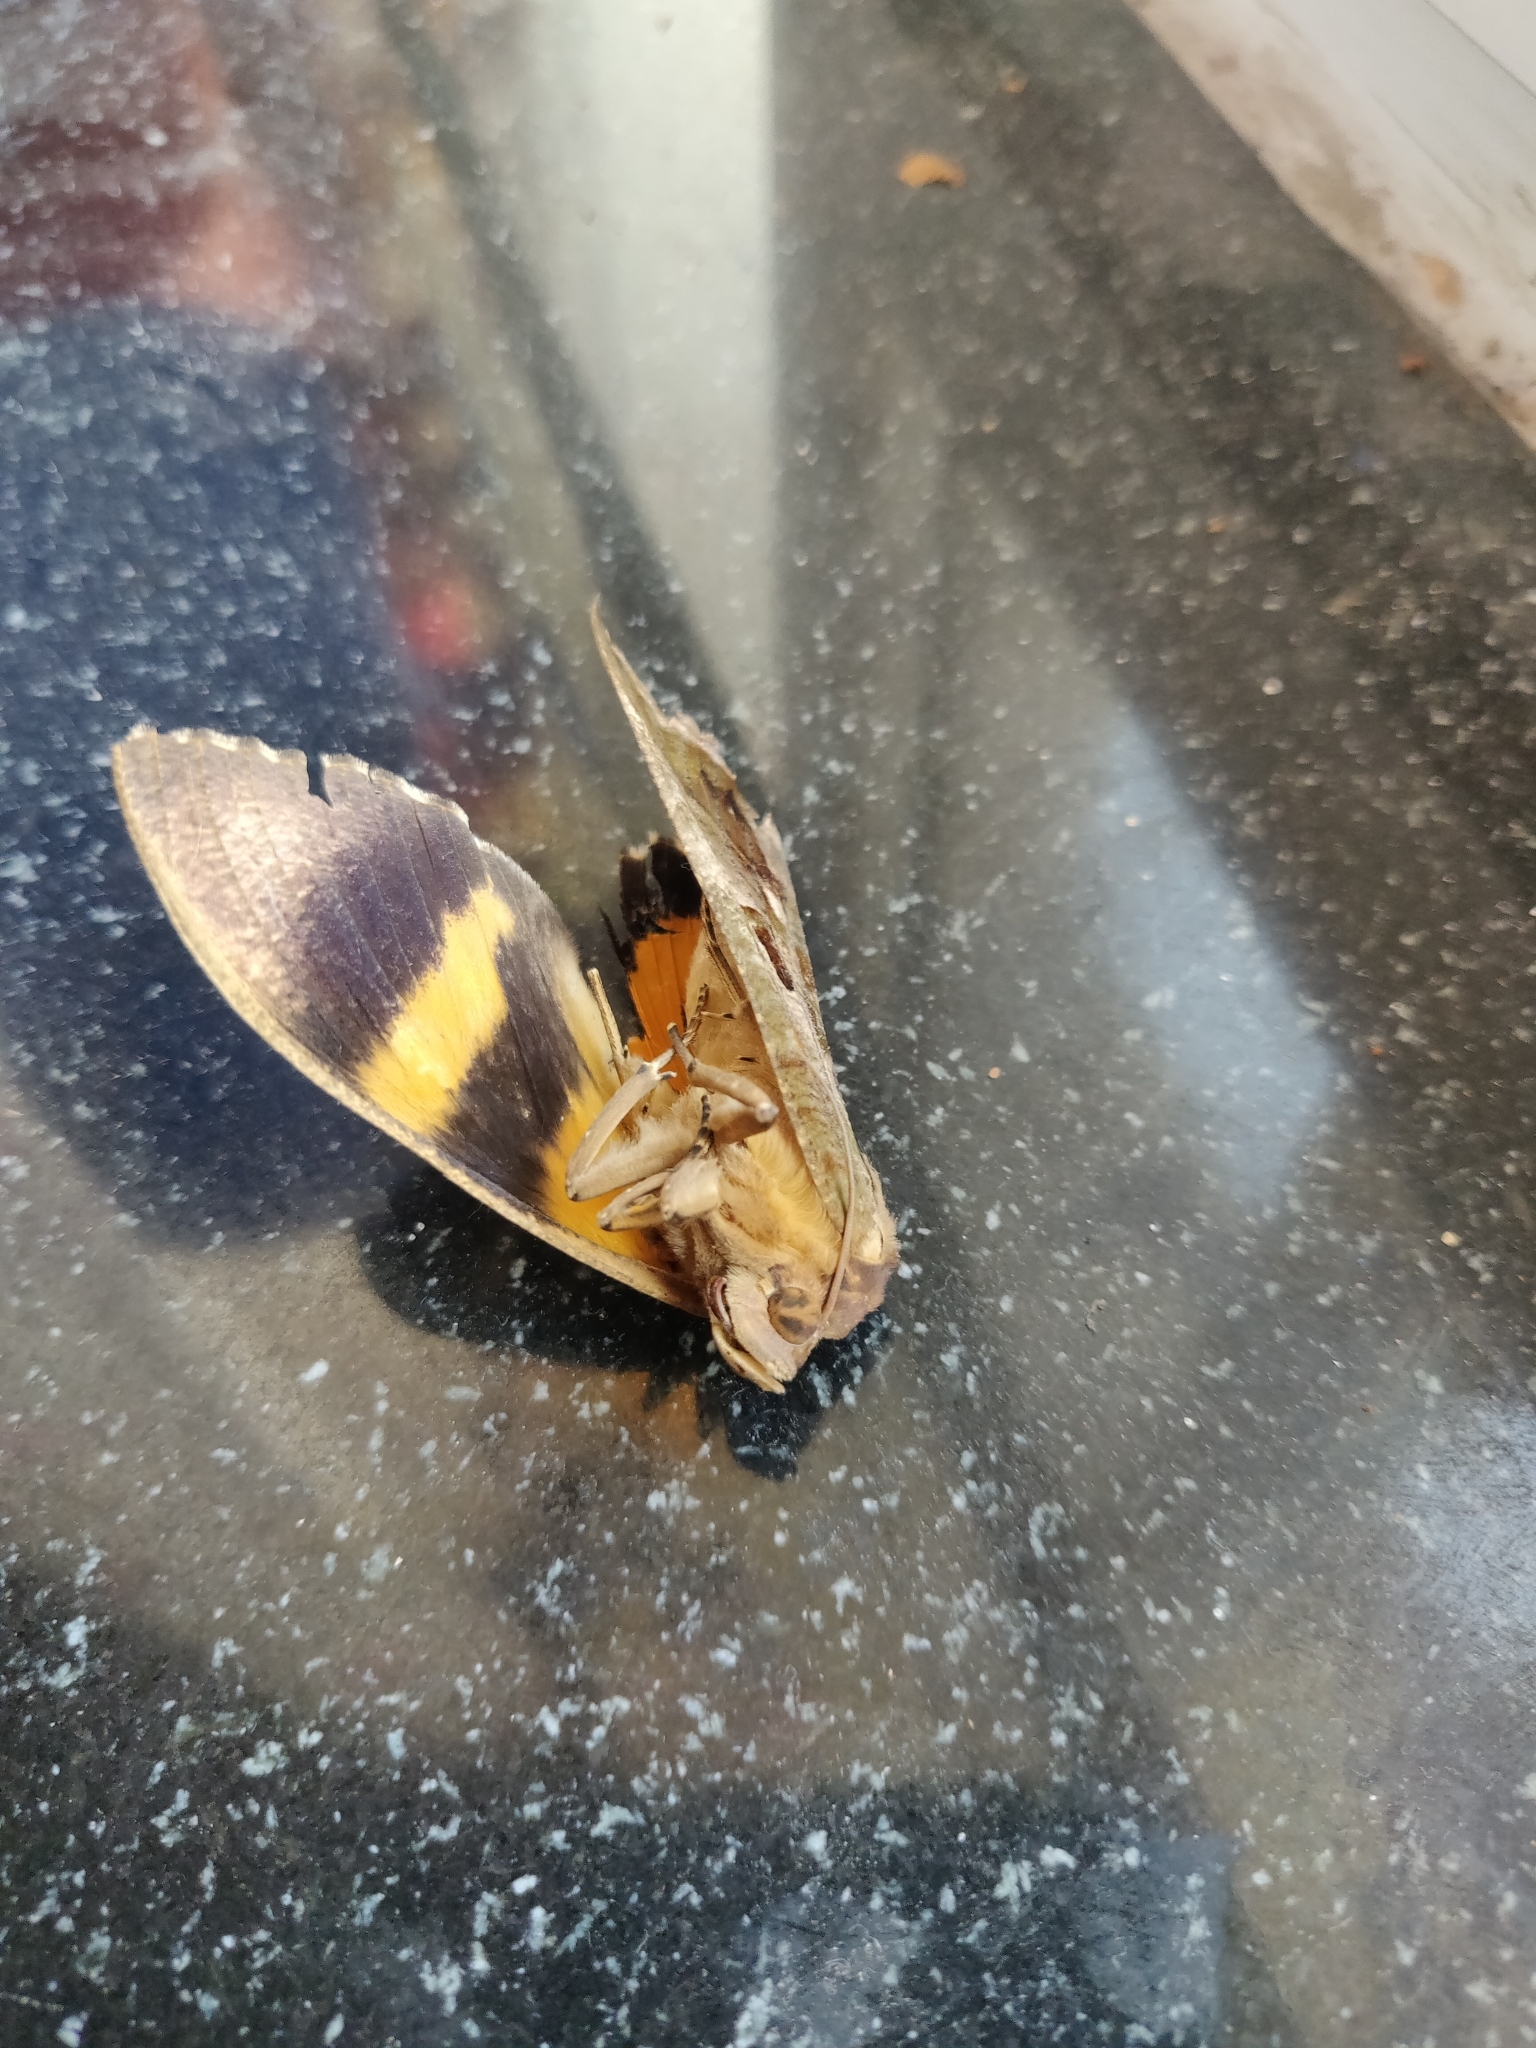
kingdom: Animalia
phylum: Arthropoda
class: Insecta
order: Lepidoptera
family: Erebidae
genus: Eudocima
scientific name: Eudocima phalonia
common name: Wasp
